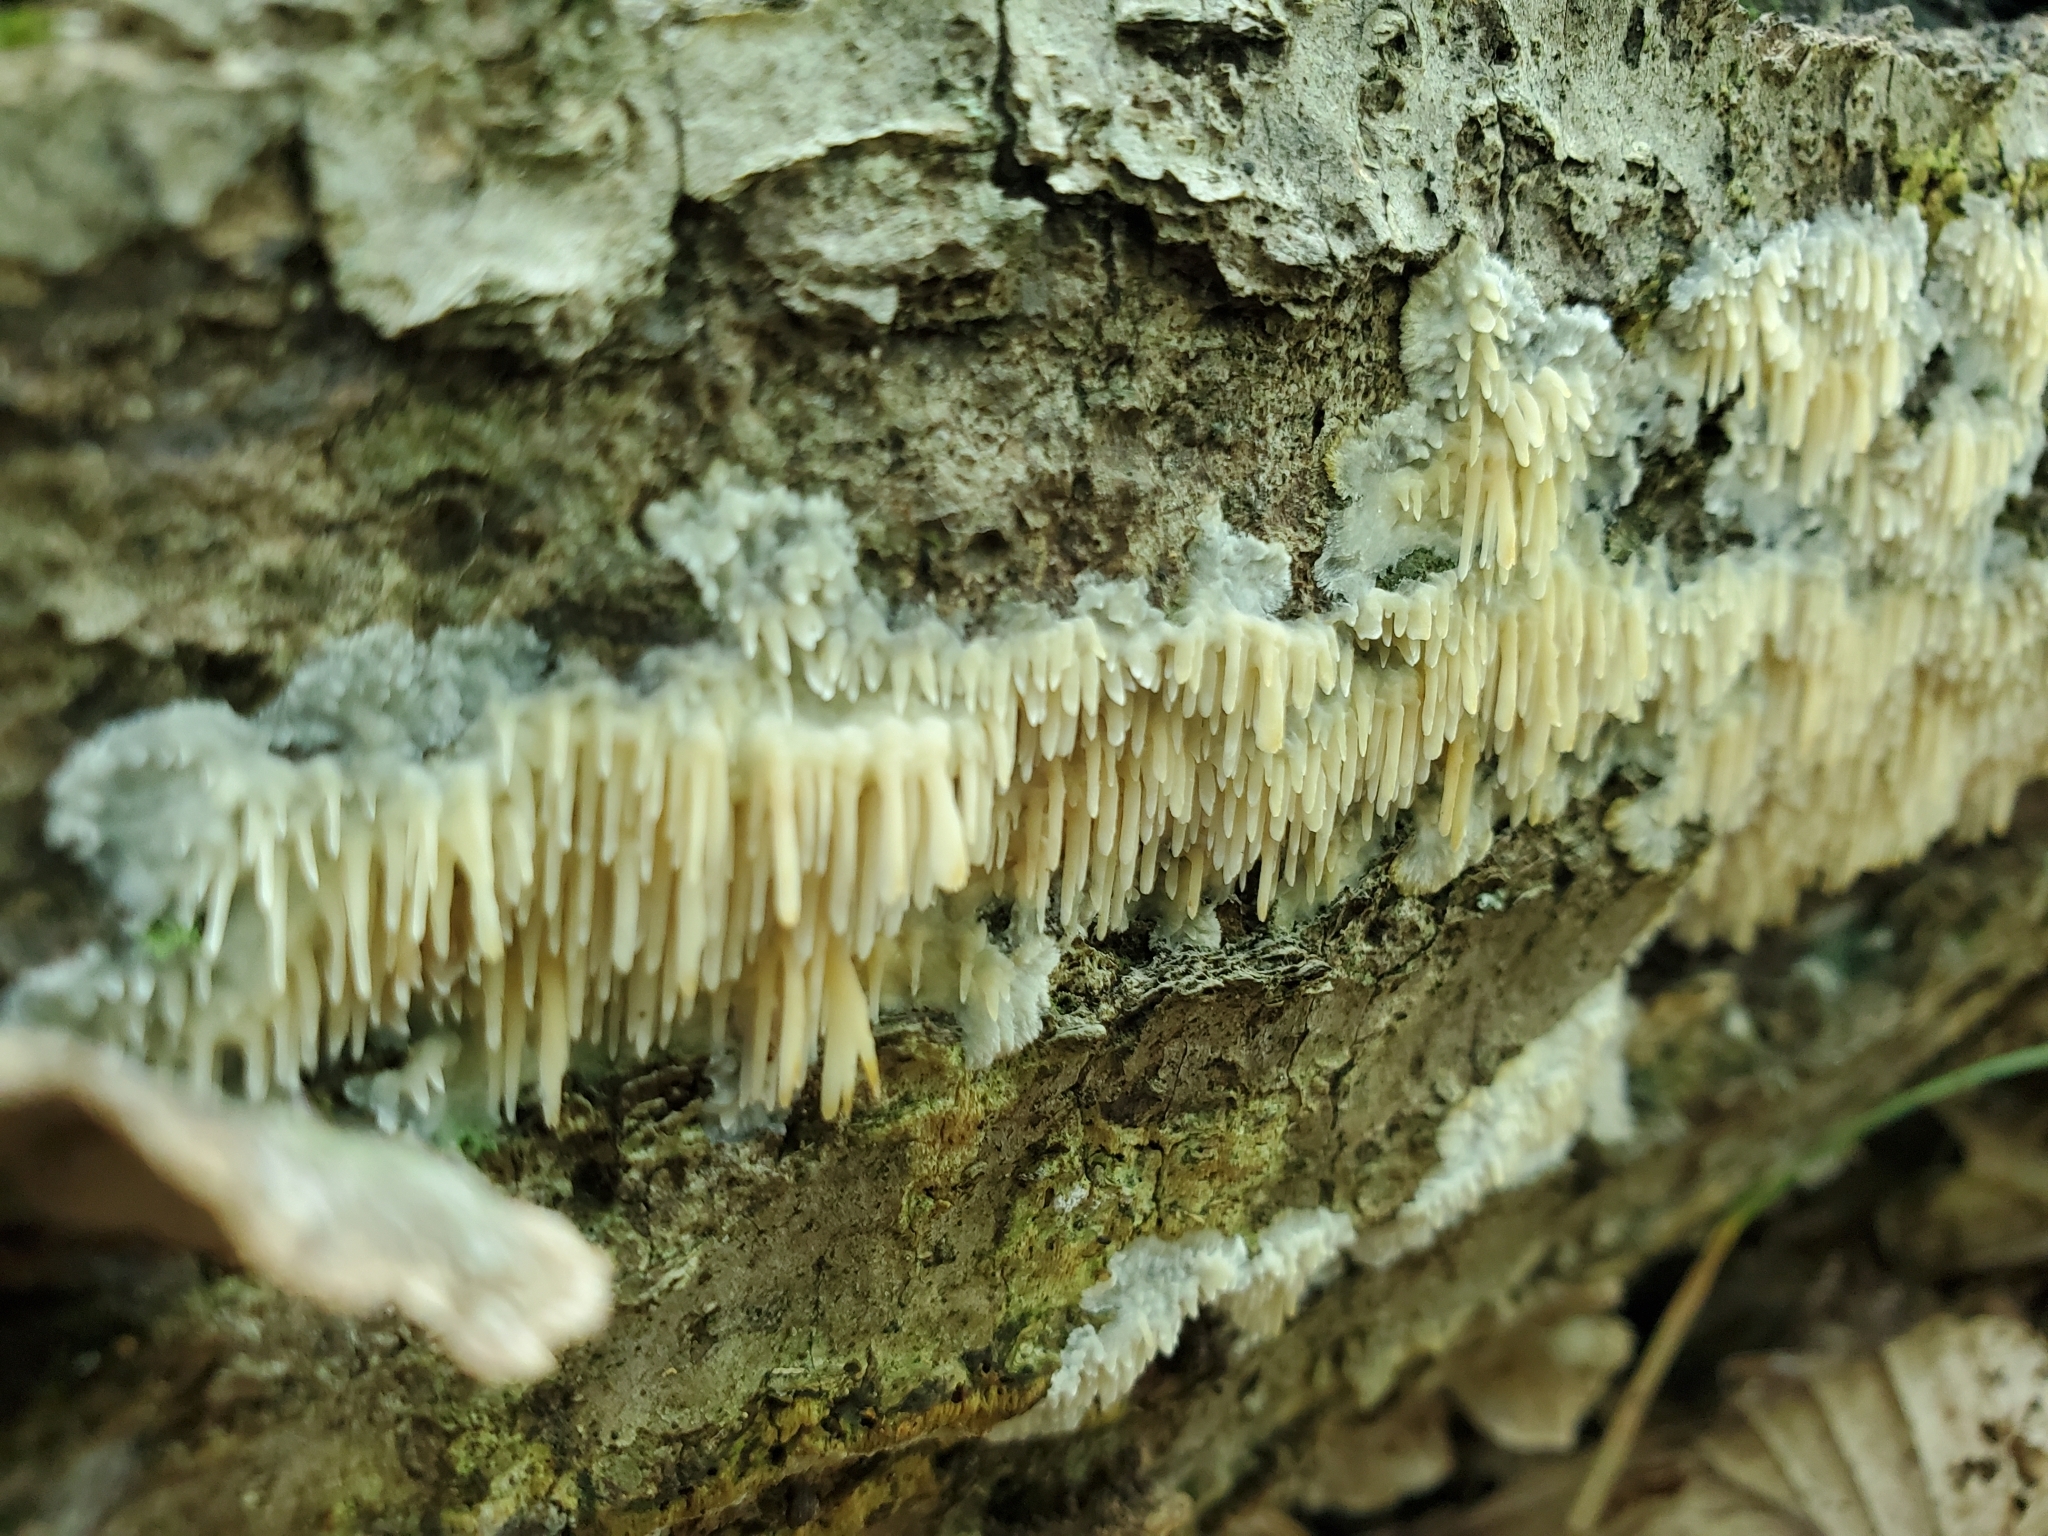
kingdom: Fungi
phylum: Basidiomycota
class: Agaricomycetes
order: Agaricales
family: Radulomycetaceae
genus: Radulomyces
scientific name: Radulomyces copelandii
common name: Asian beauty
